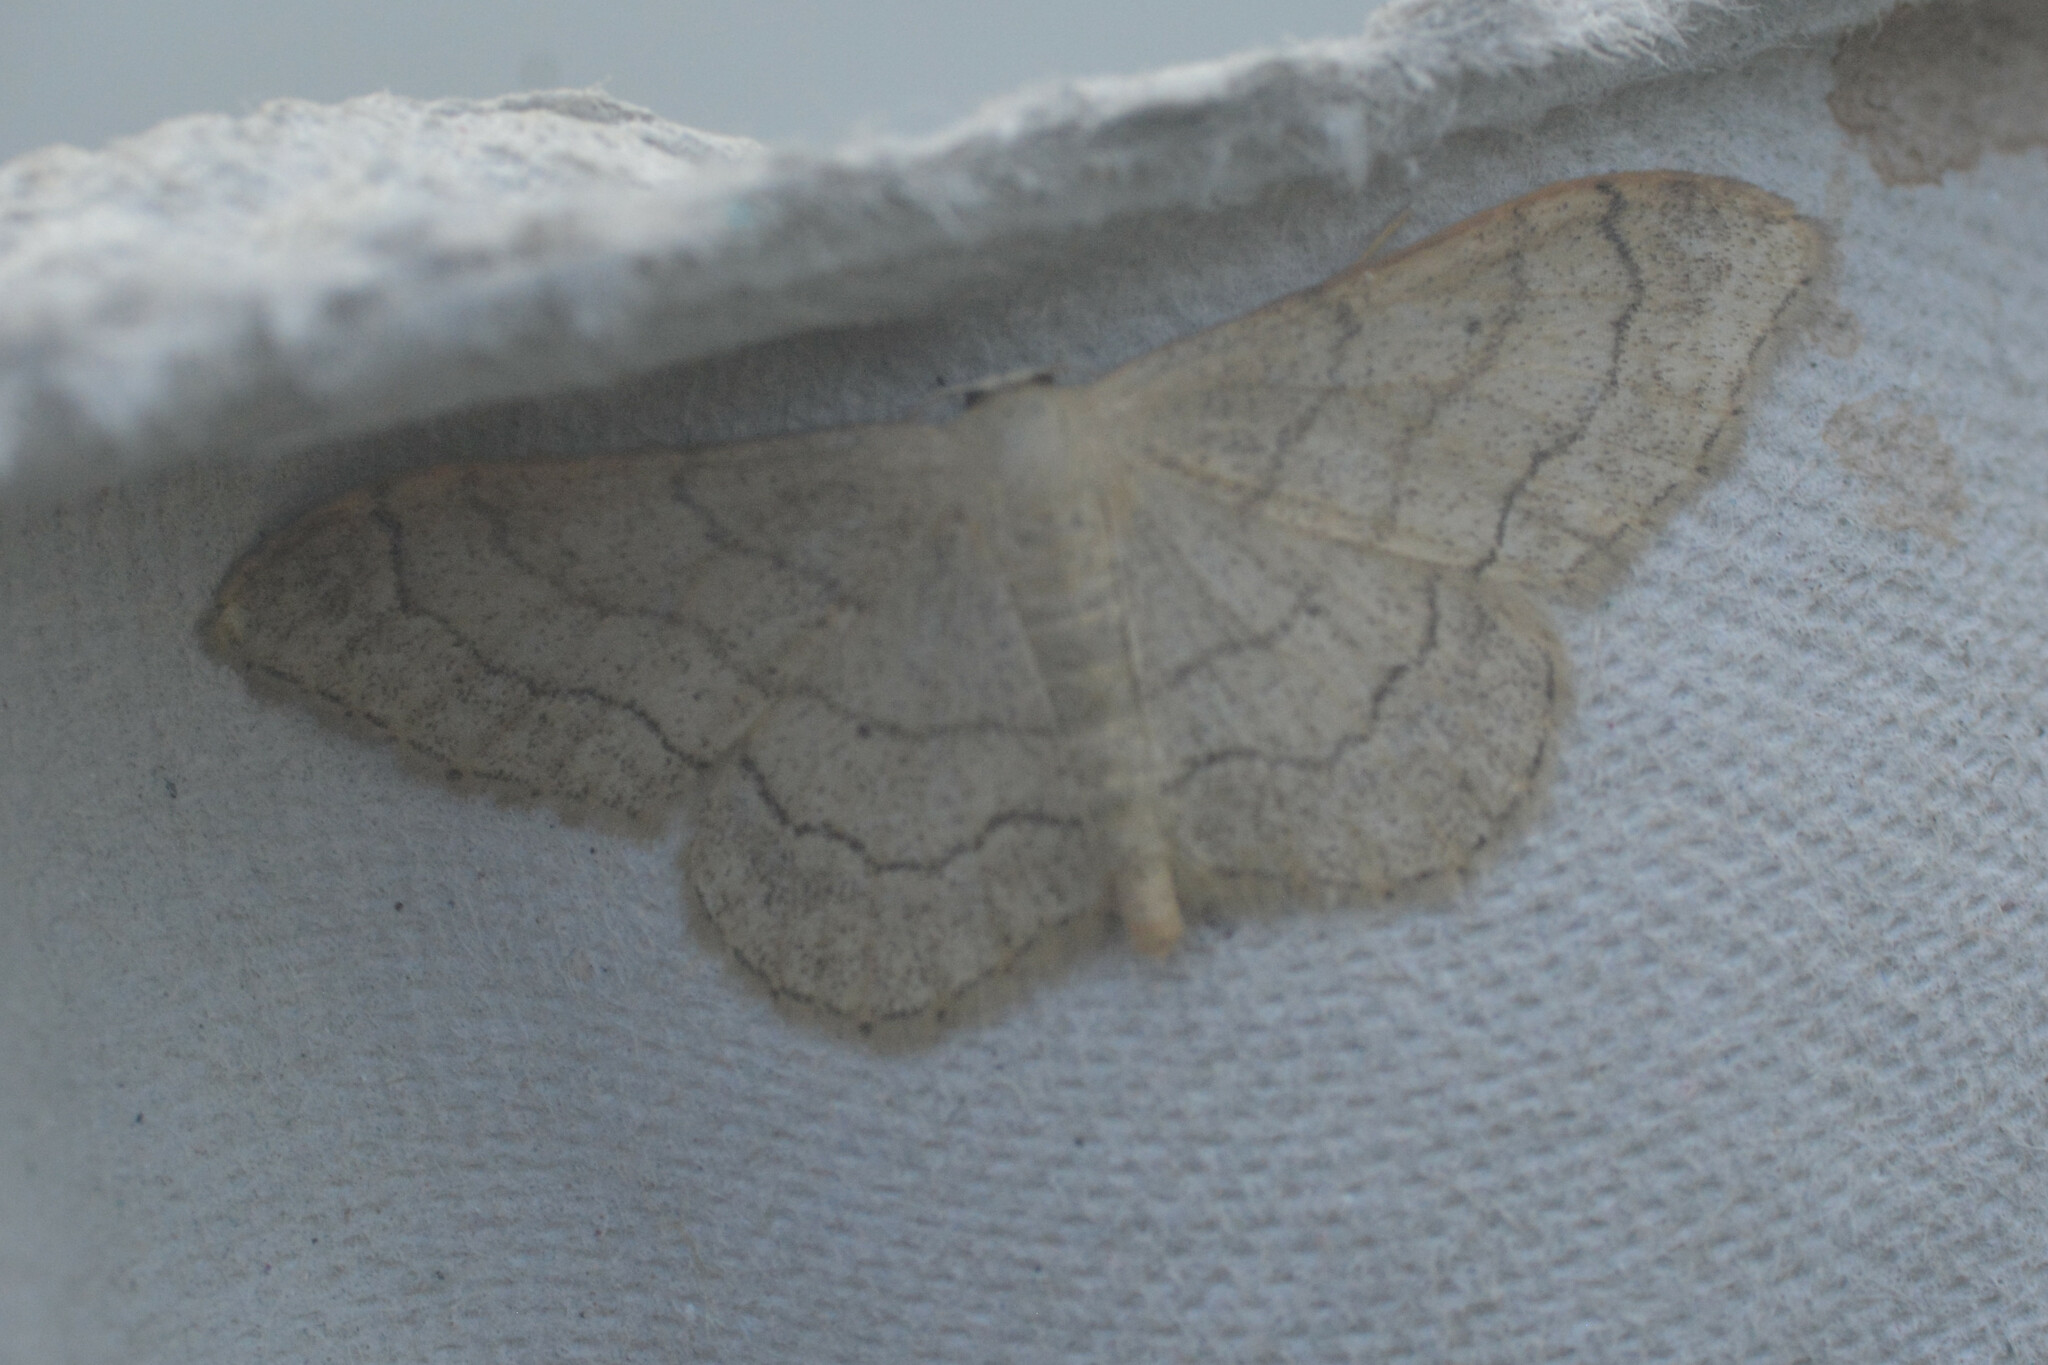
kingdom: Animalia
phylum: Arthropoda
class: Insecta
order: Lepidoptera
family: Geometridae
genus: Idaea
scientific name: Idaea aversata
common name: Riband wave
